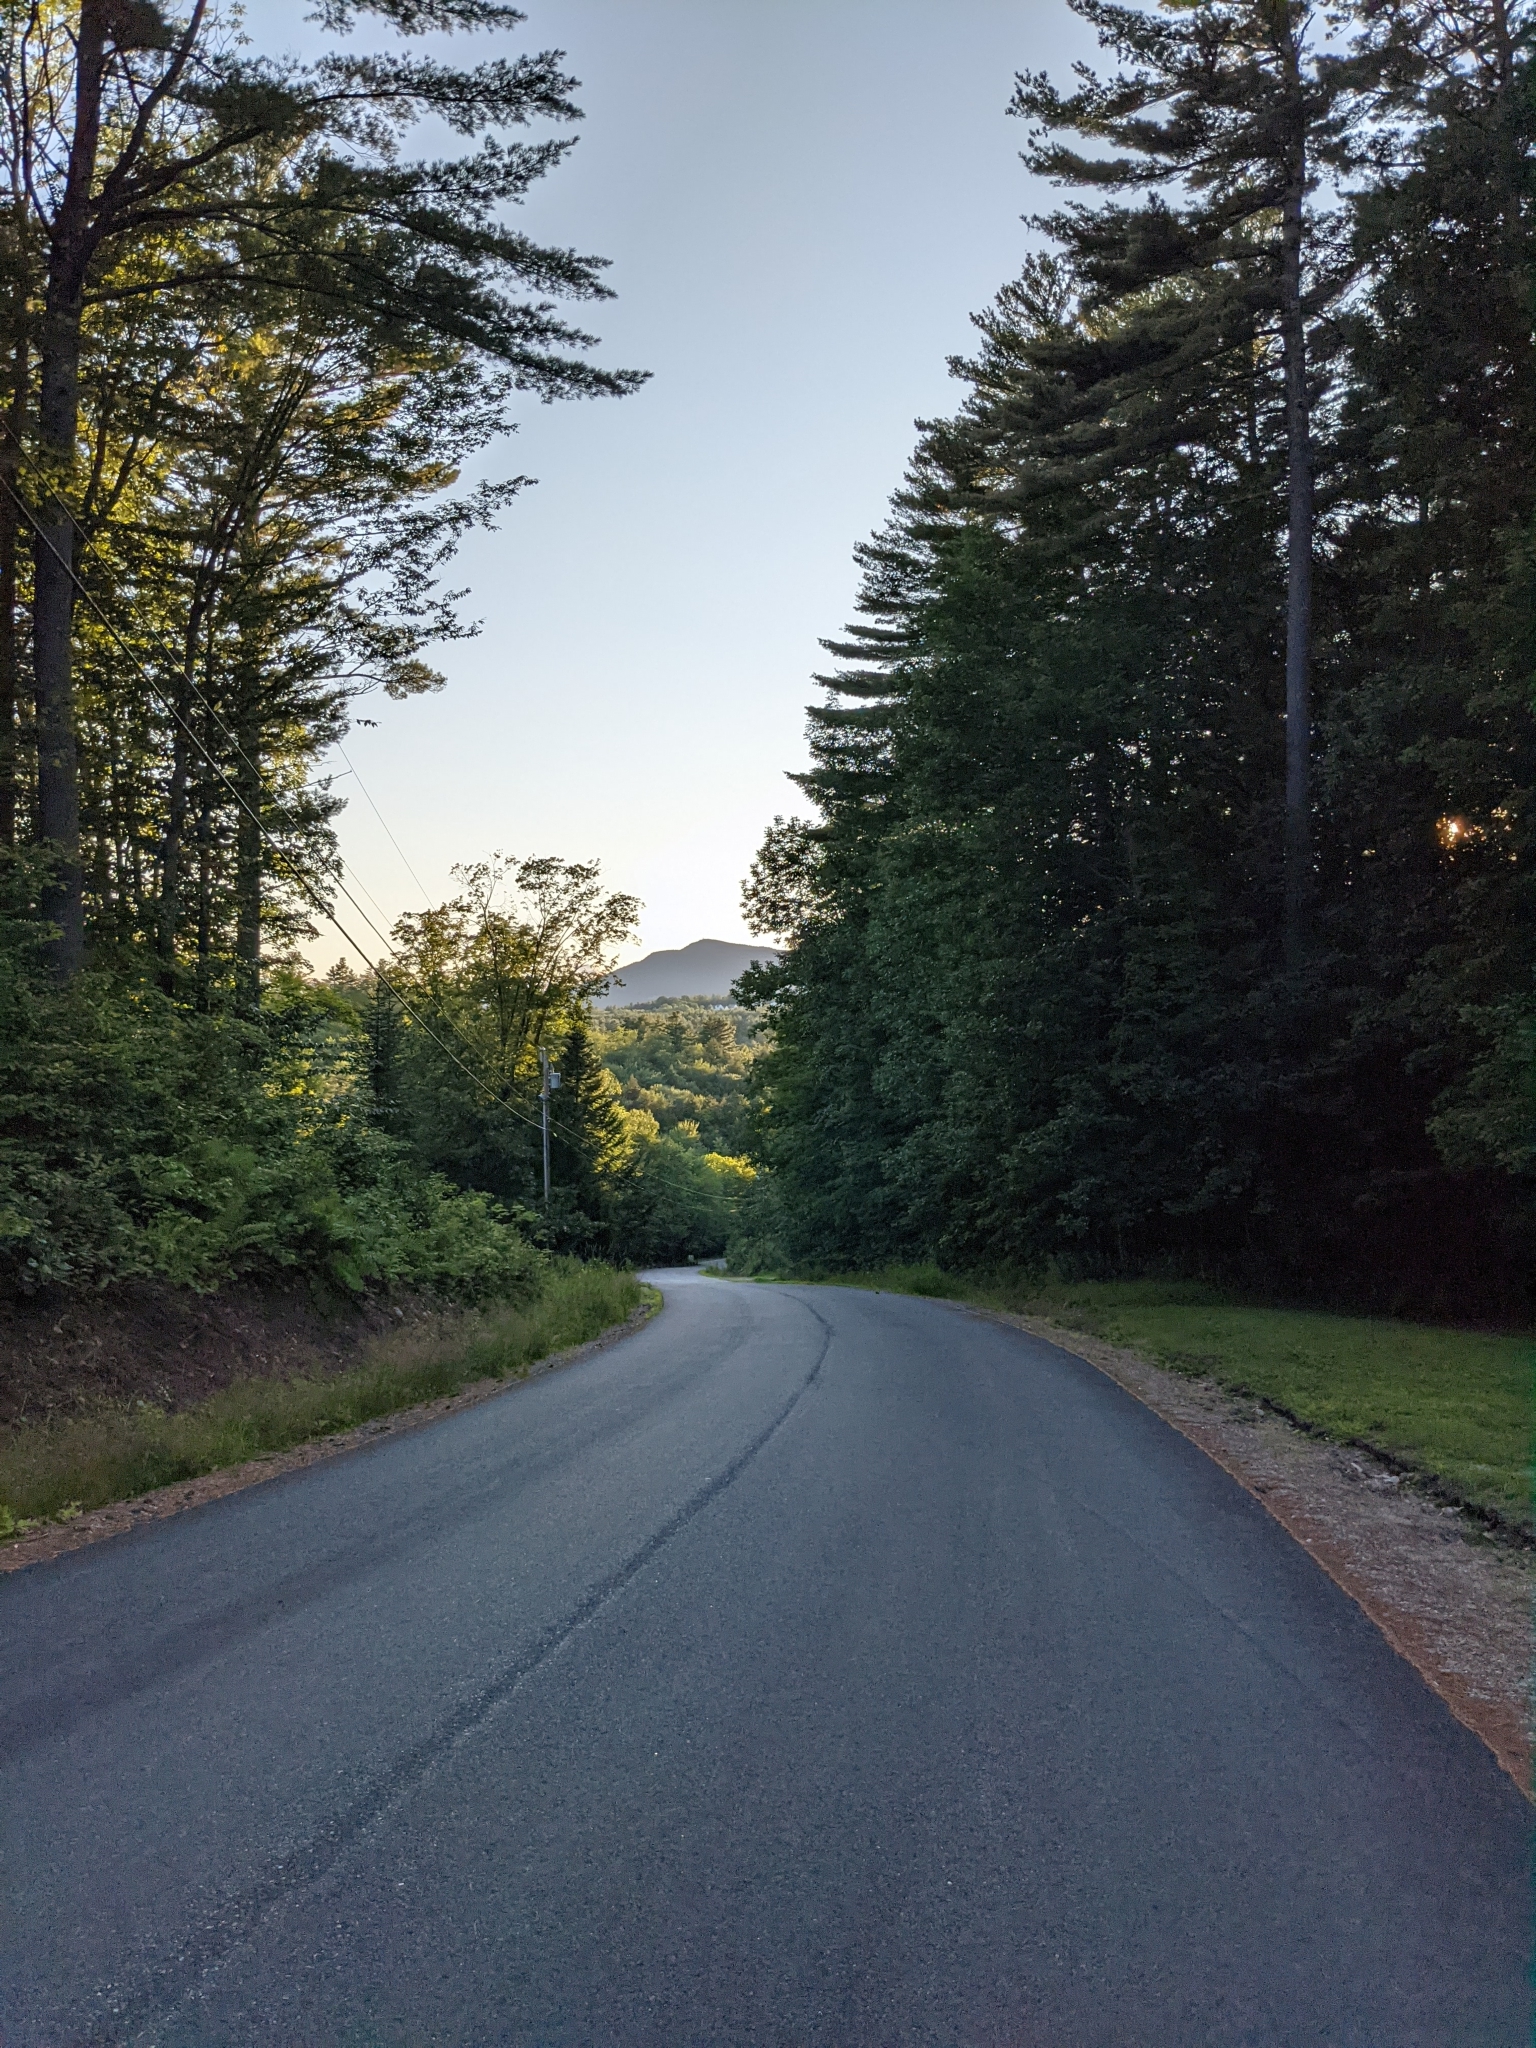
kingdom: Plantae
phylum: Tracheophyta
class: Pinopsida
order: Pinales
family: Pinaceae
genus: Pinus
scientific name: Pinus strobus
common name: Weymouth pine
